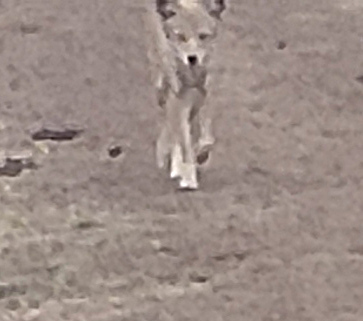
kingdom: Animalia
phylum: Chordata
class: Mammalia
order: Carnivora
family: Canidae
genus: Canis
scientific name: Canis latrans
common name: Coyote
